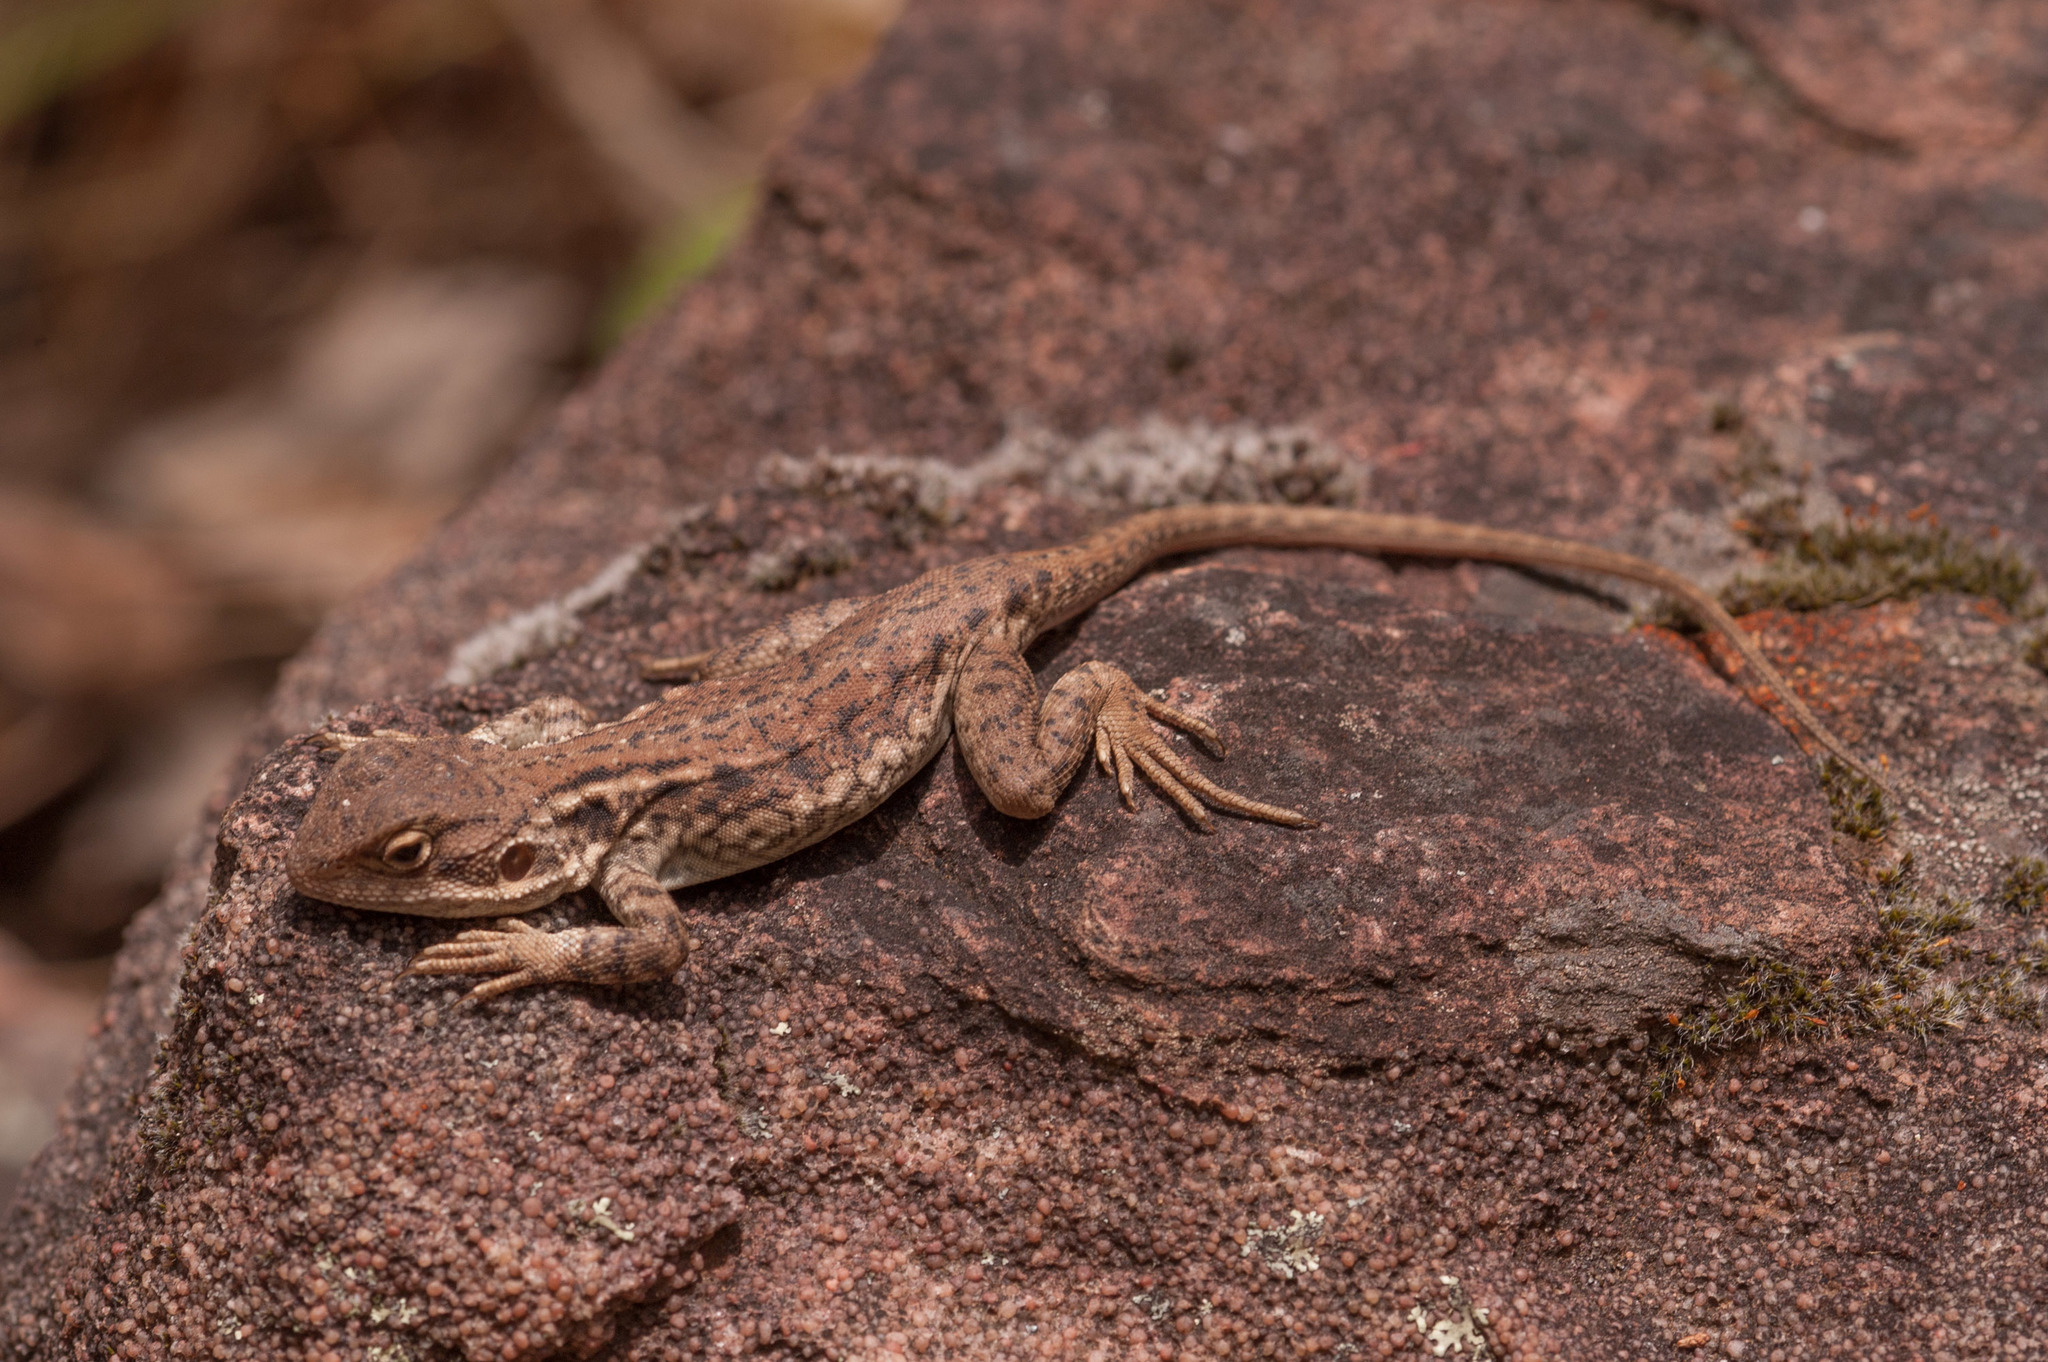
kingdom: Animalia
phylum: Chordata
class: Squamata
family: Agamidae
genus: Ctenophorus
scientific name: Ctenophorus modestus
